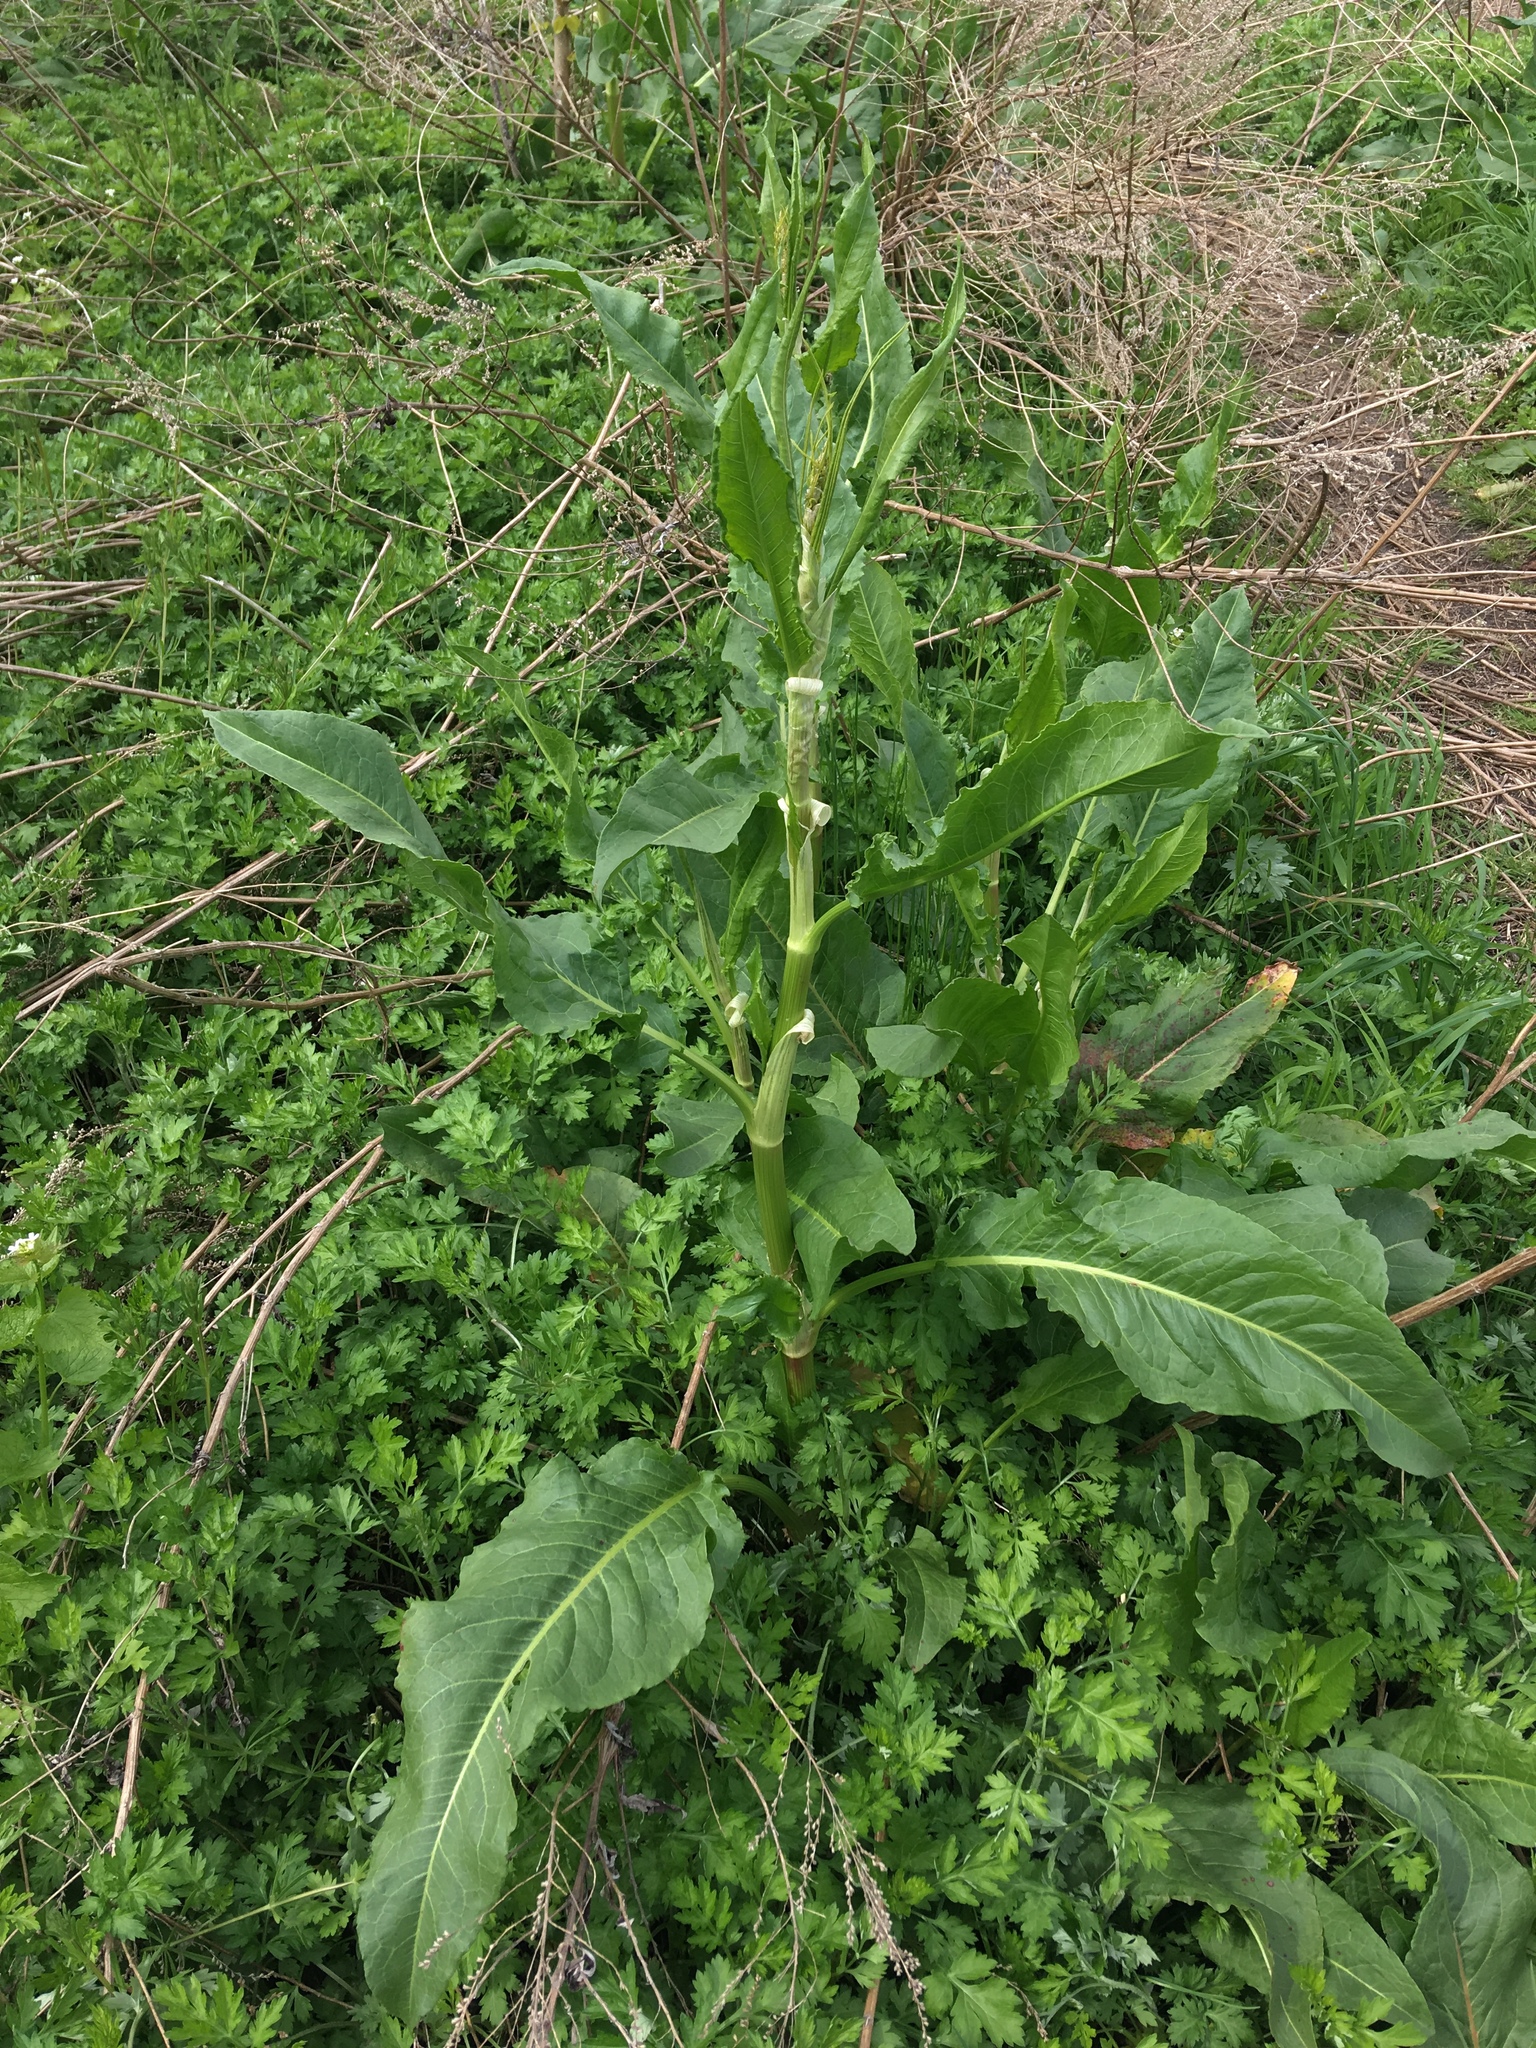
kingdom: Plantae
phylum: Tracheophyta
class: Magnoliopsida
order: Caryophyllales
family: Polygonaceae
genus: Rumex
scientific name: Rumex crispus
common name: Curled dock
